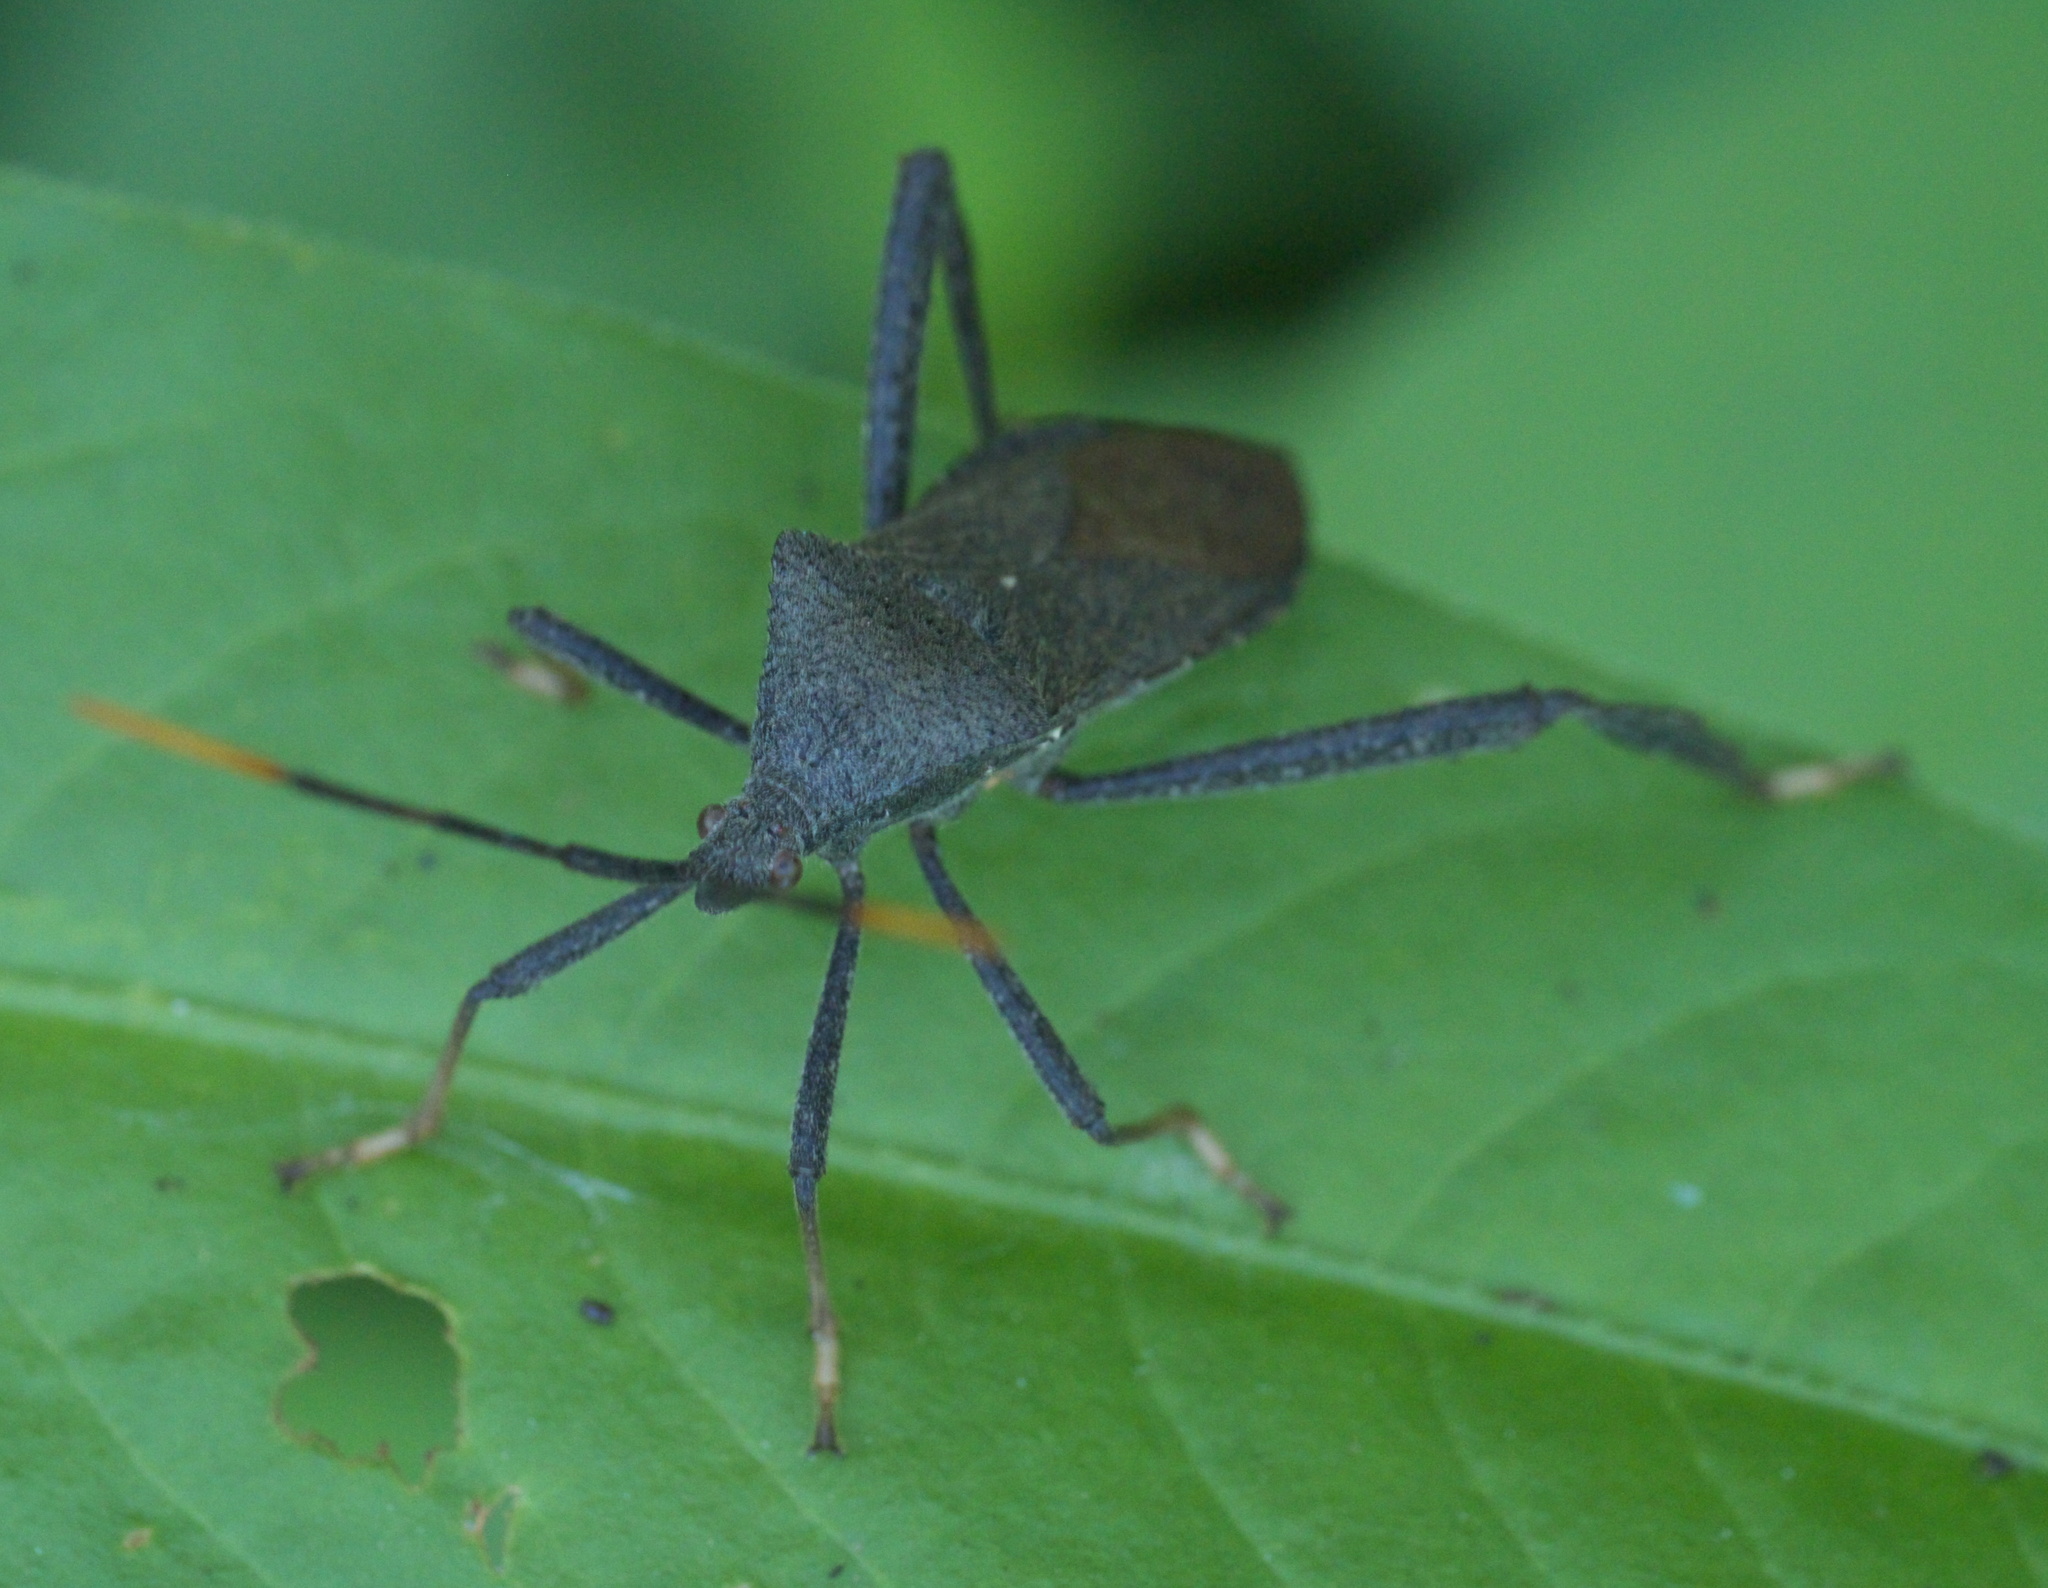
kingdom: Animalia
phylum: Arthropoda
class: Insecta
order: Hemiptera
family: Coreidae
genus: Acanthocephala
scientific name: Acanthocephala terminalis
